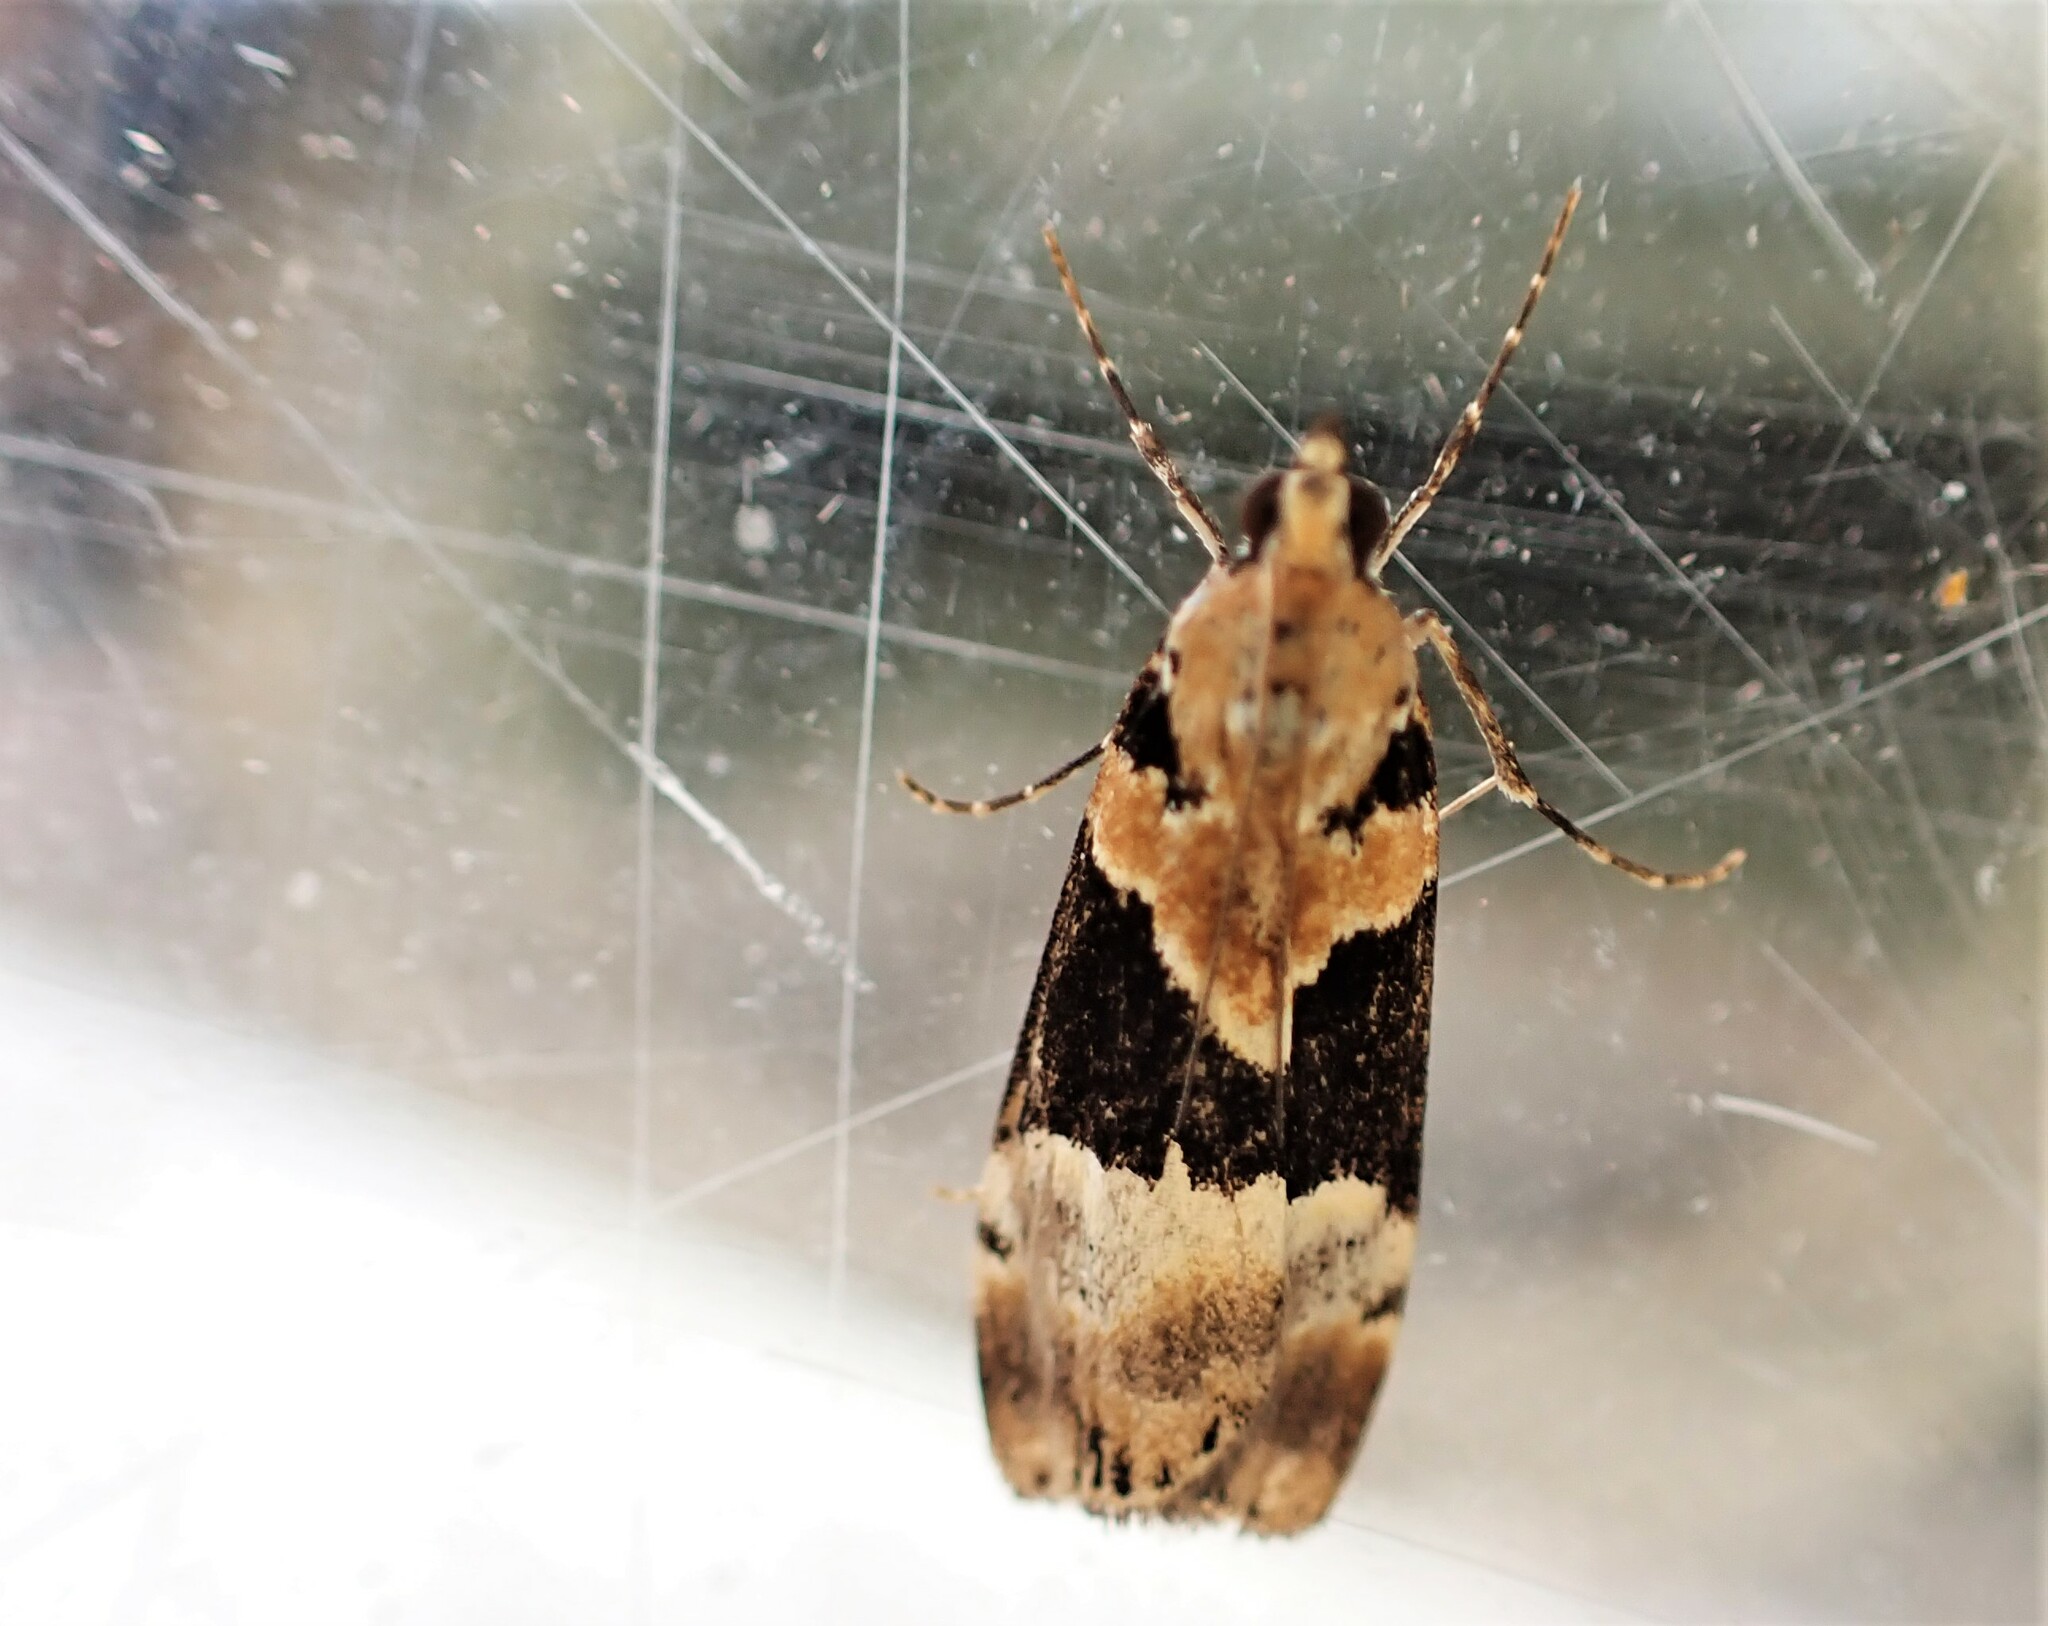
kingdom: Animalia
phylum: Arthropoda
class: Insecta
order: Lepidoptera
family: Crambidae
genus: Eudonia
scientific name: Eudonia aspidota
